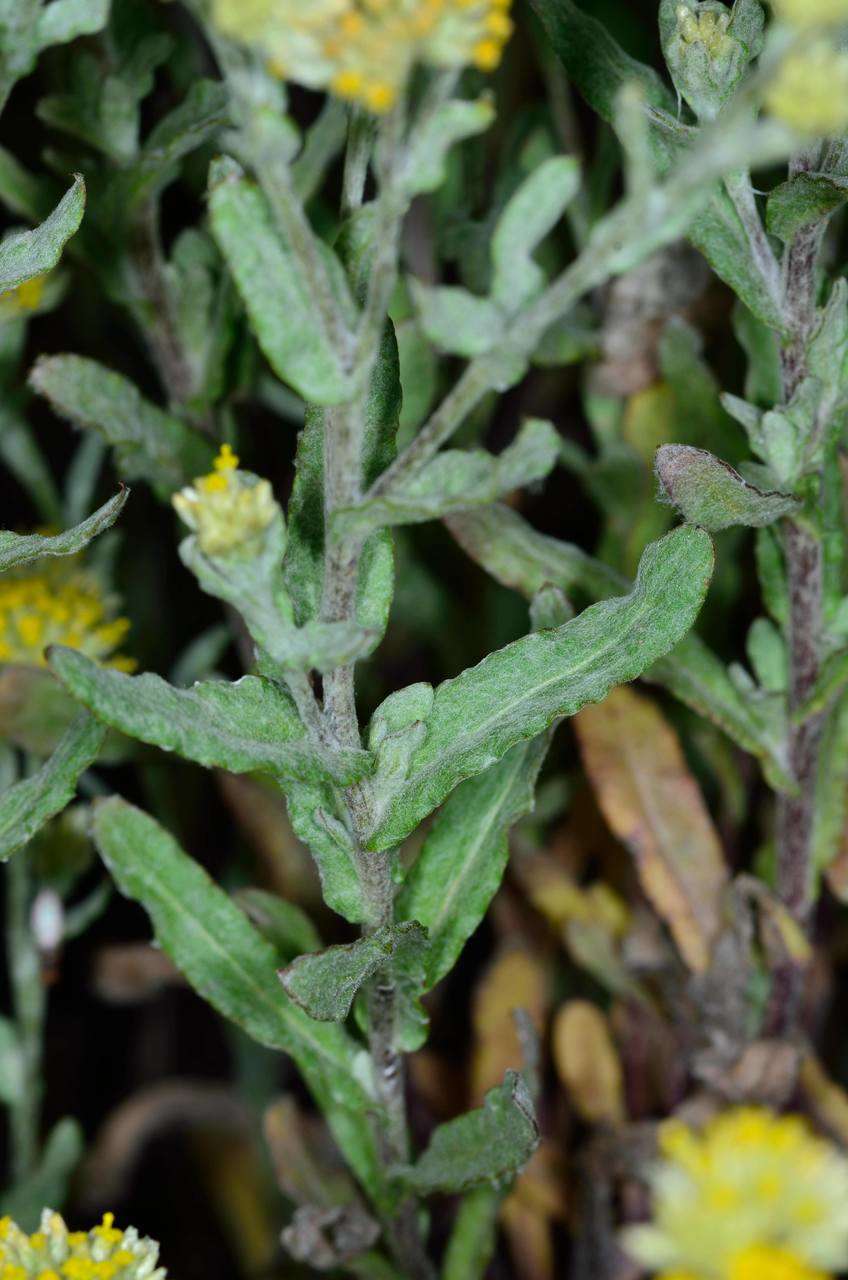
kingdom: Plantae
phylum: Tracheophyta
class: Magnoliopsida
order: Asterales
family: Asteraceae
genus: Rhodanthe
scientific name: Rhodanthe moschata
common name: Musk sunray
